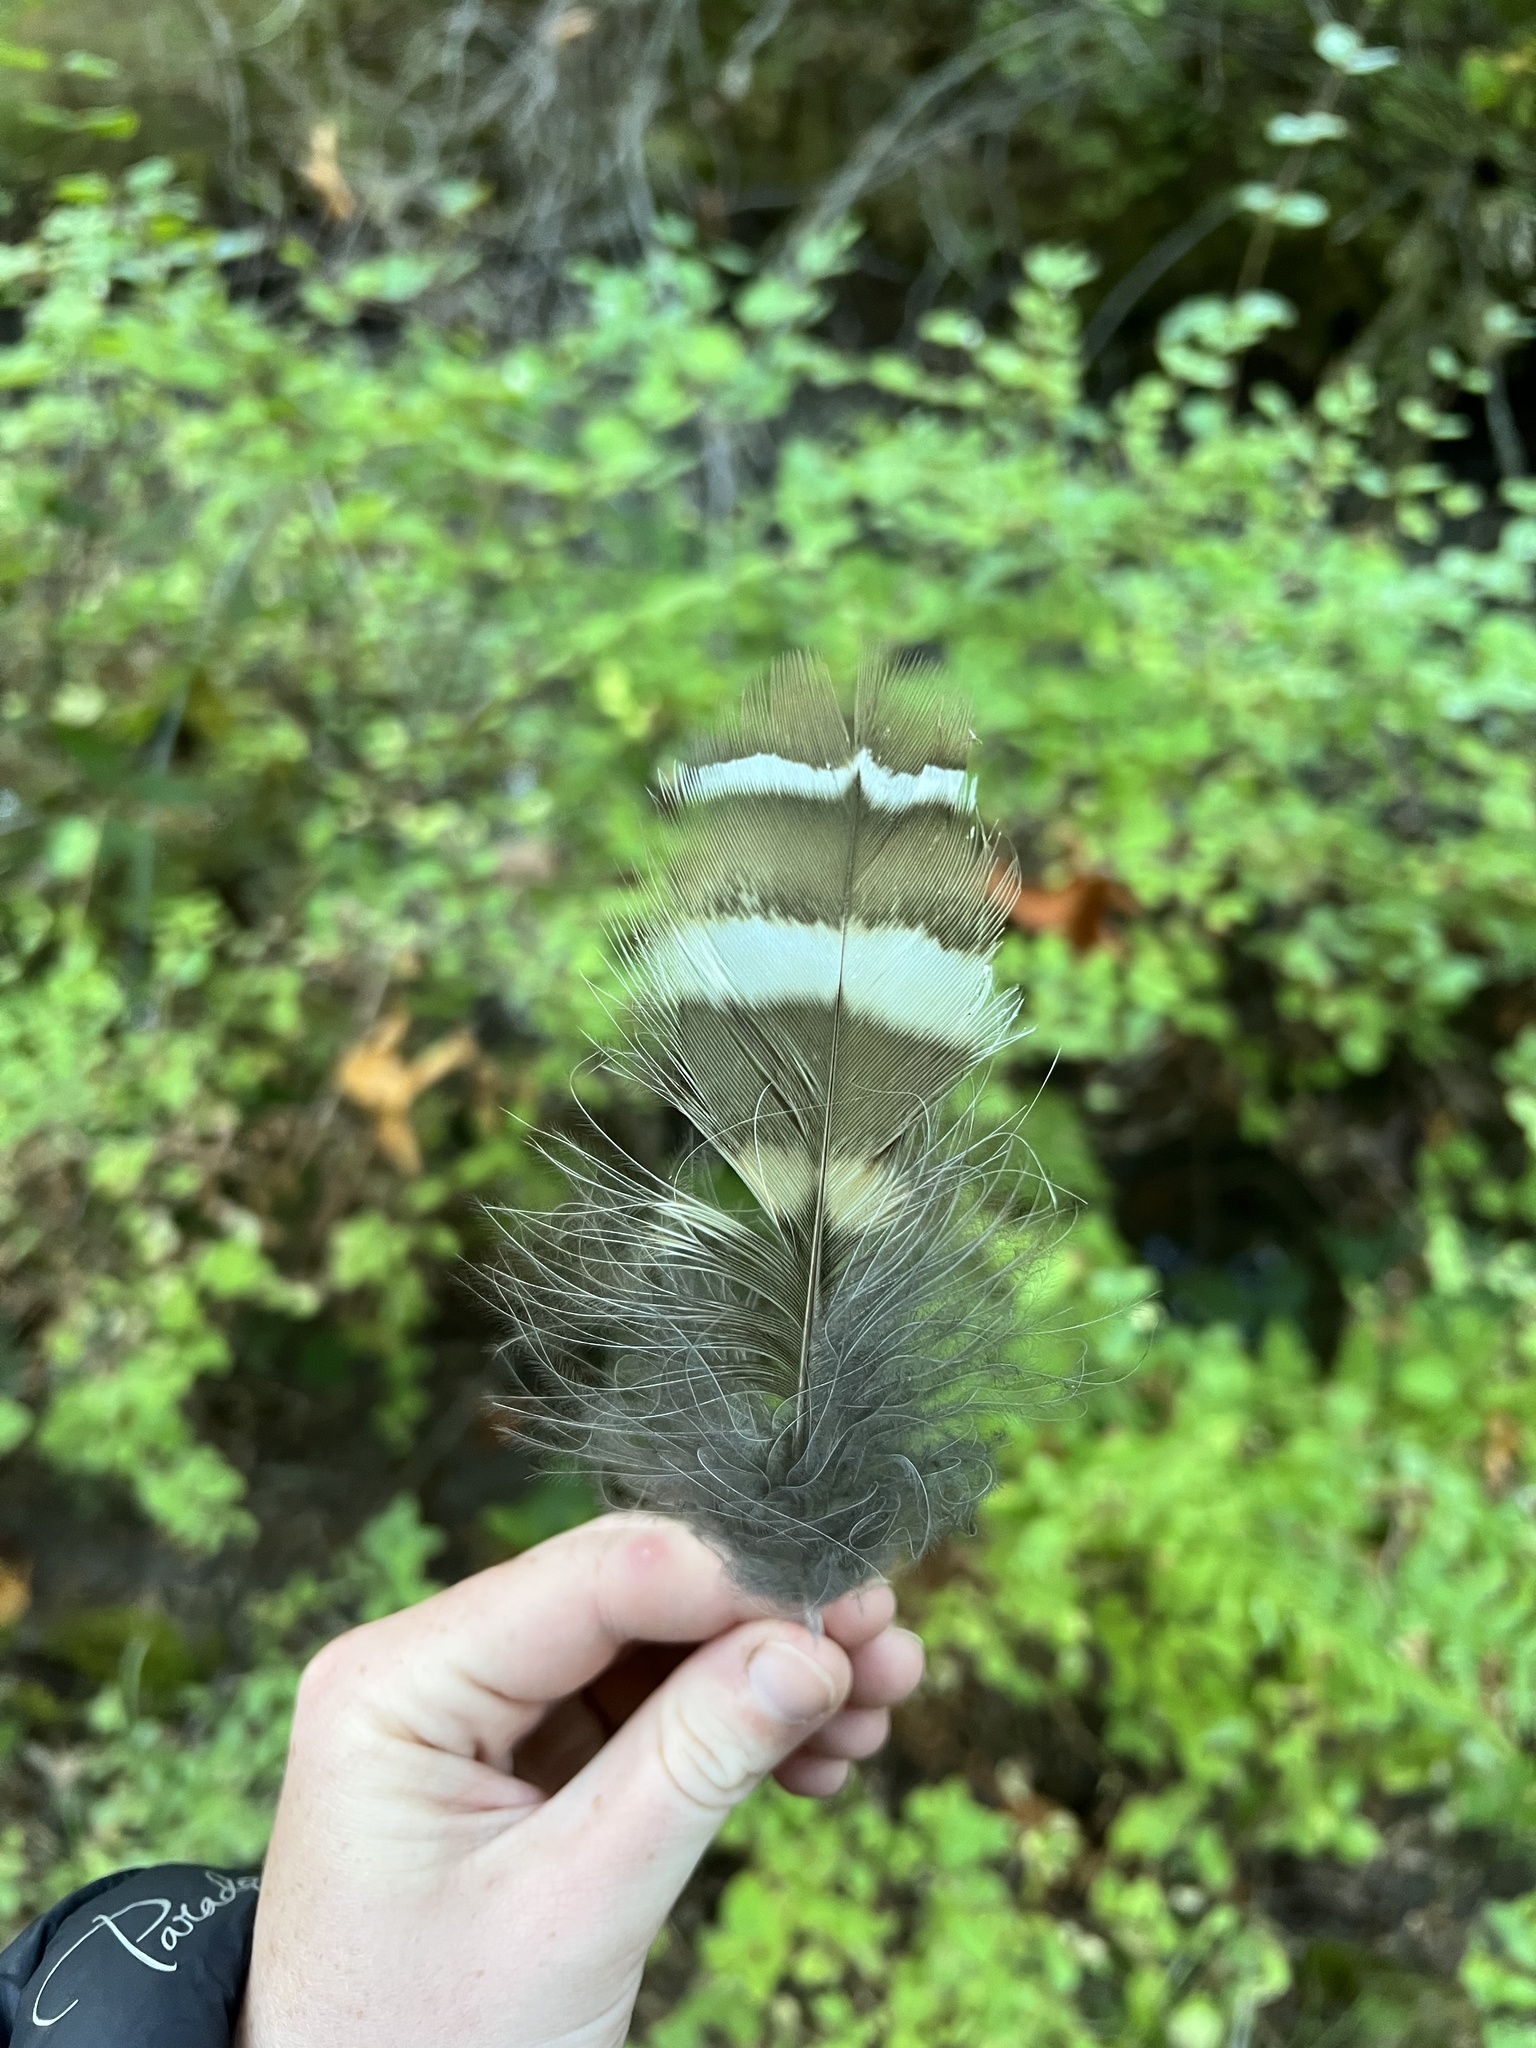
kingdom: Animalia
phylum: Chordata
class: Aves
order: Strigiformes
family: Strigidae
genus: Strix
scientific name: Strix varia
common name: Barred owl
